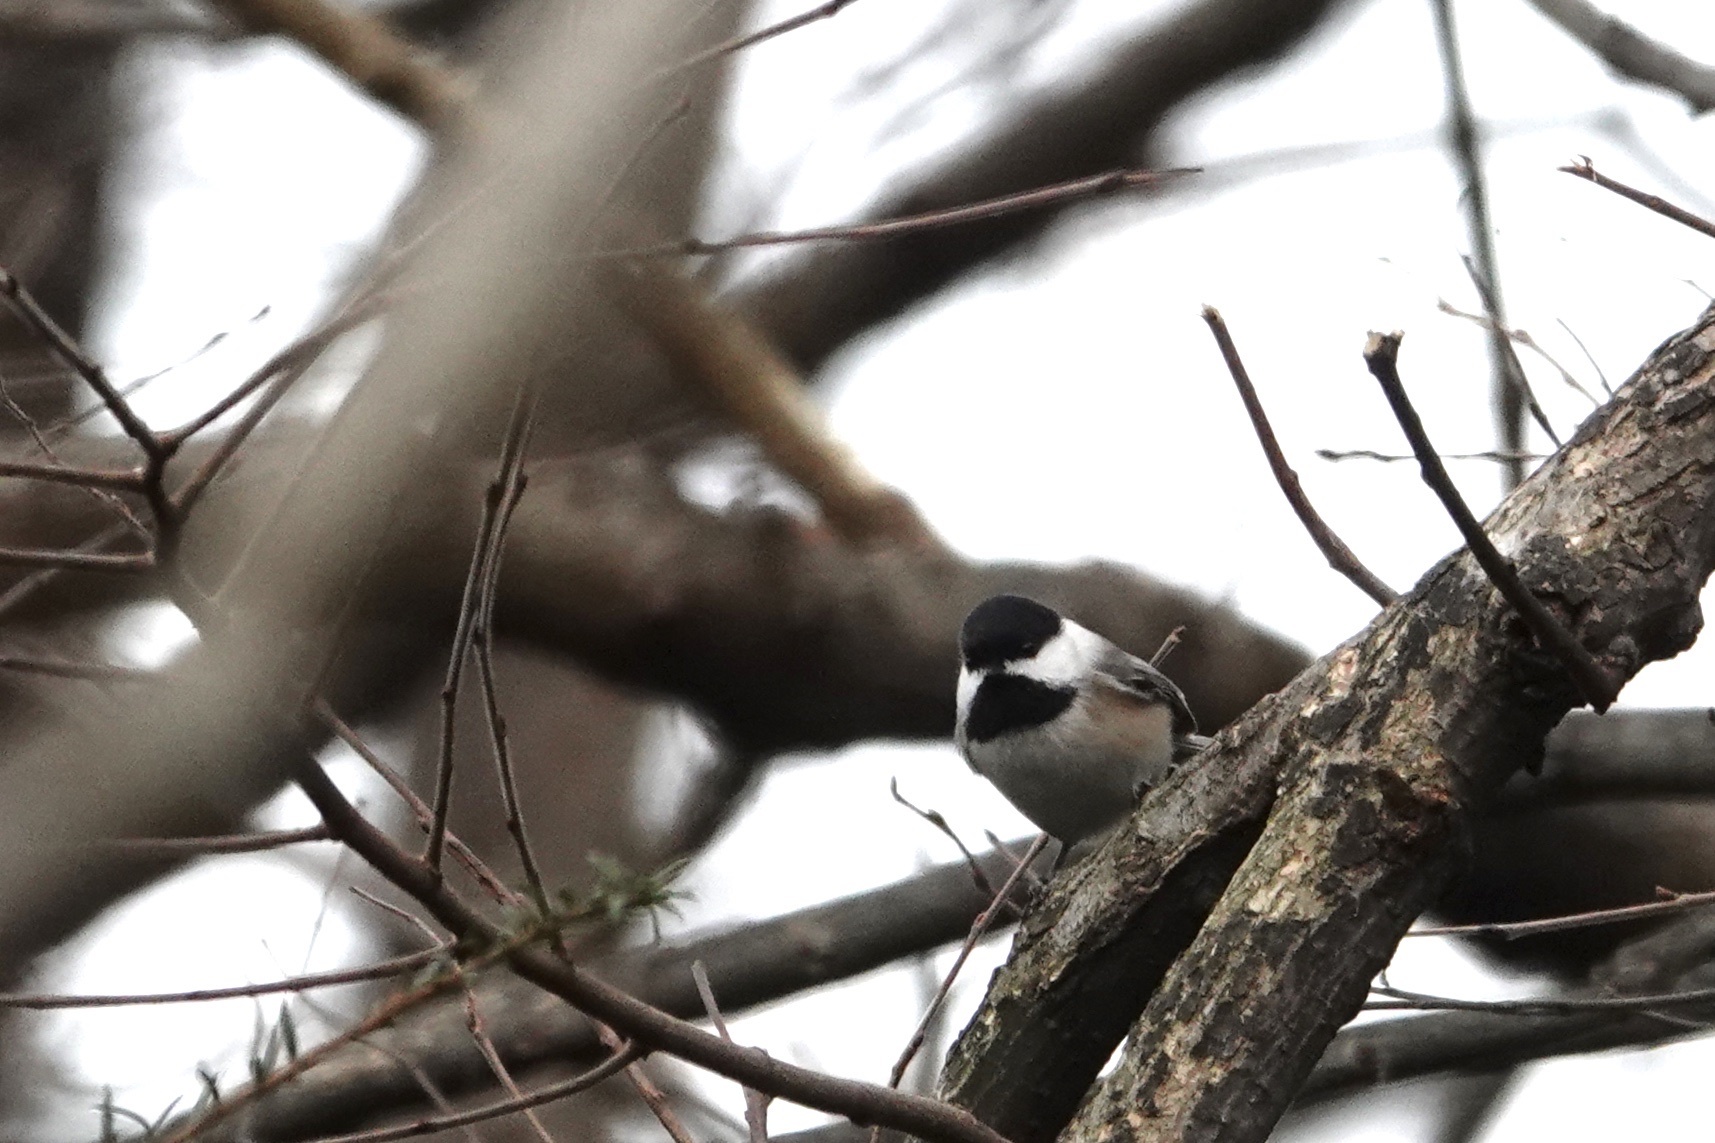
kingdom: Animalia
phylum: Chordata
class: Aves
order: Passeriformes
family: Paridae
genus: Poecile
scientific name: Poecile atricapillus
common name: Black-capped chickadee
